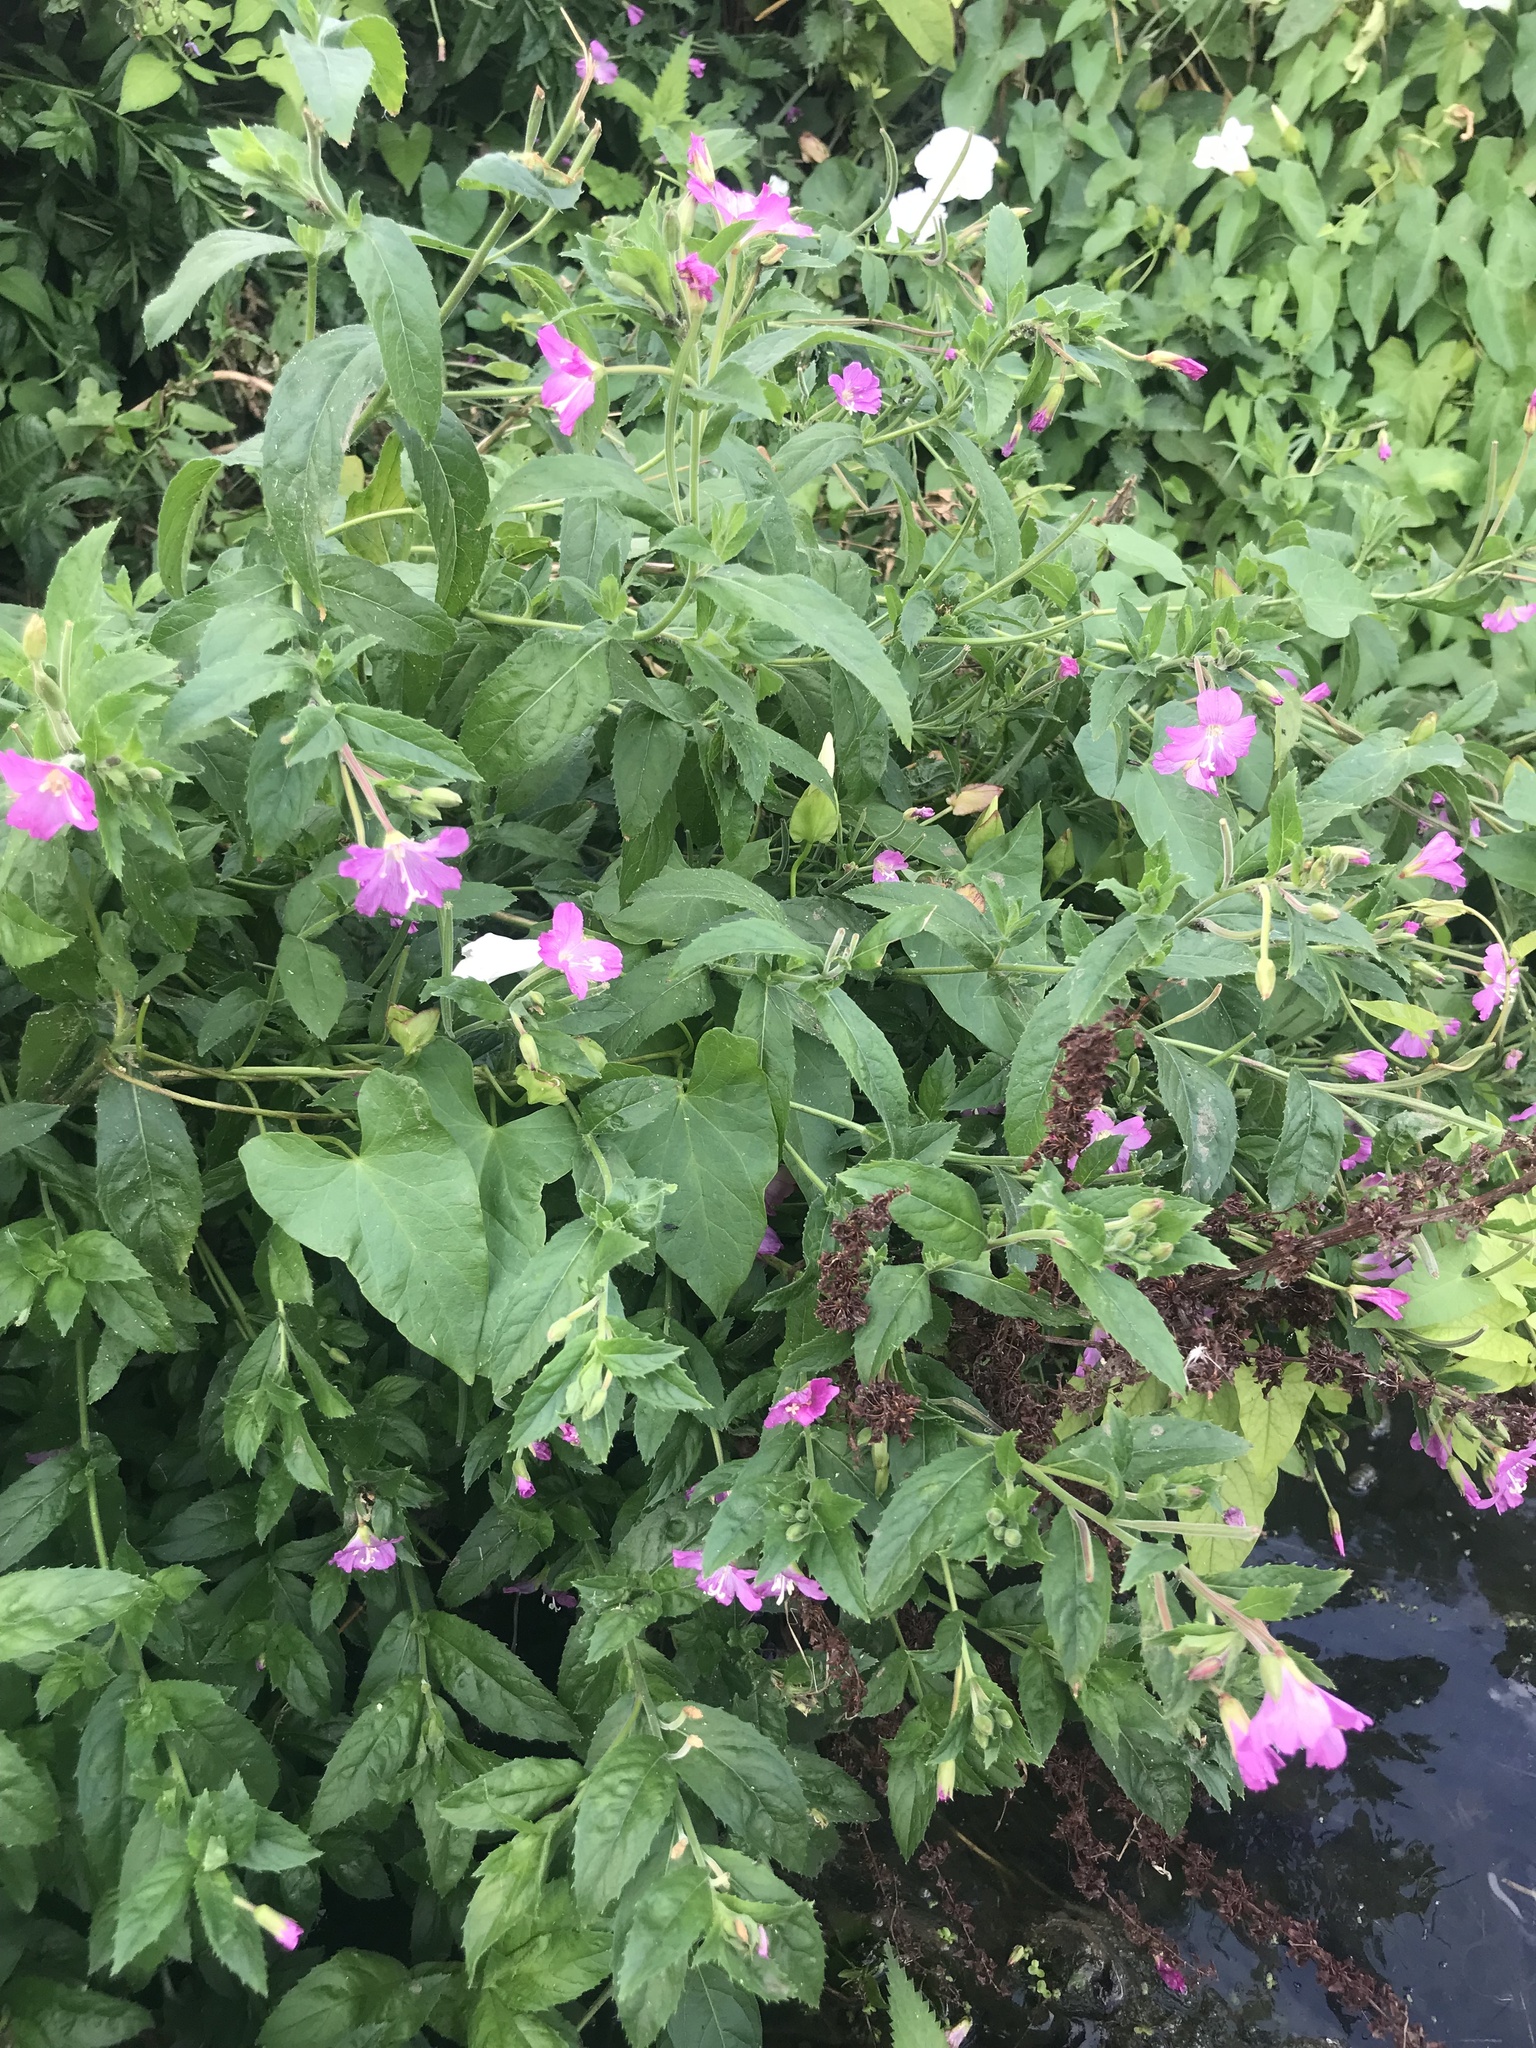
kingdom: Plantae
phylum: Tracheophyta
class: Magnoliopsida
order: Myrtales
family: Onagraceae
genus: Epilobium
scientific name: Epilobium hirsutum
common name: Great willowherb
